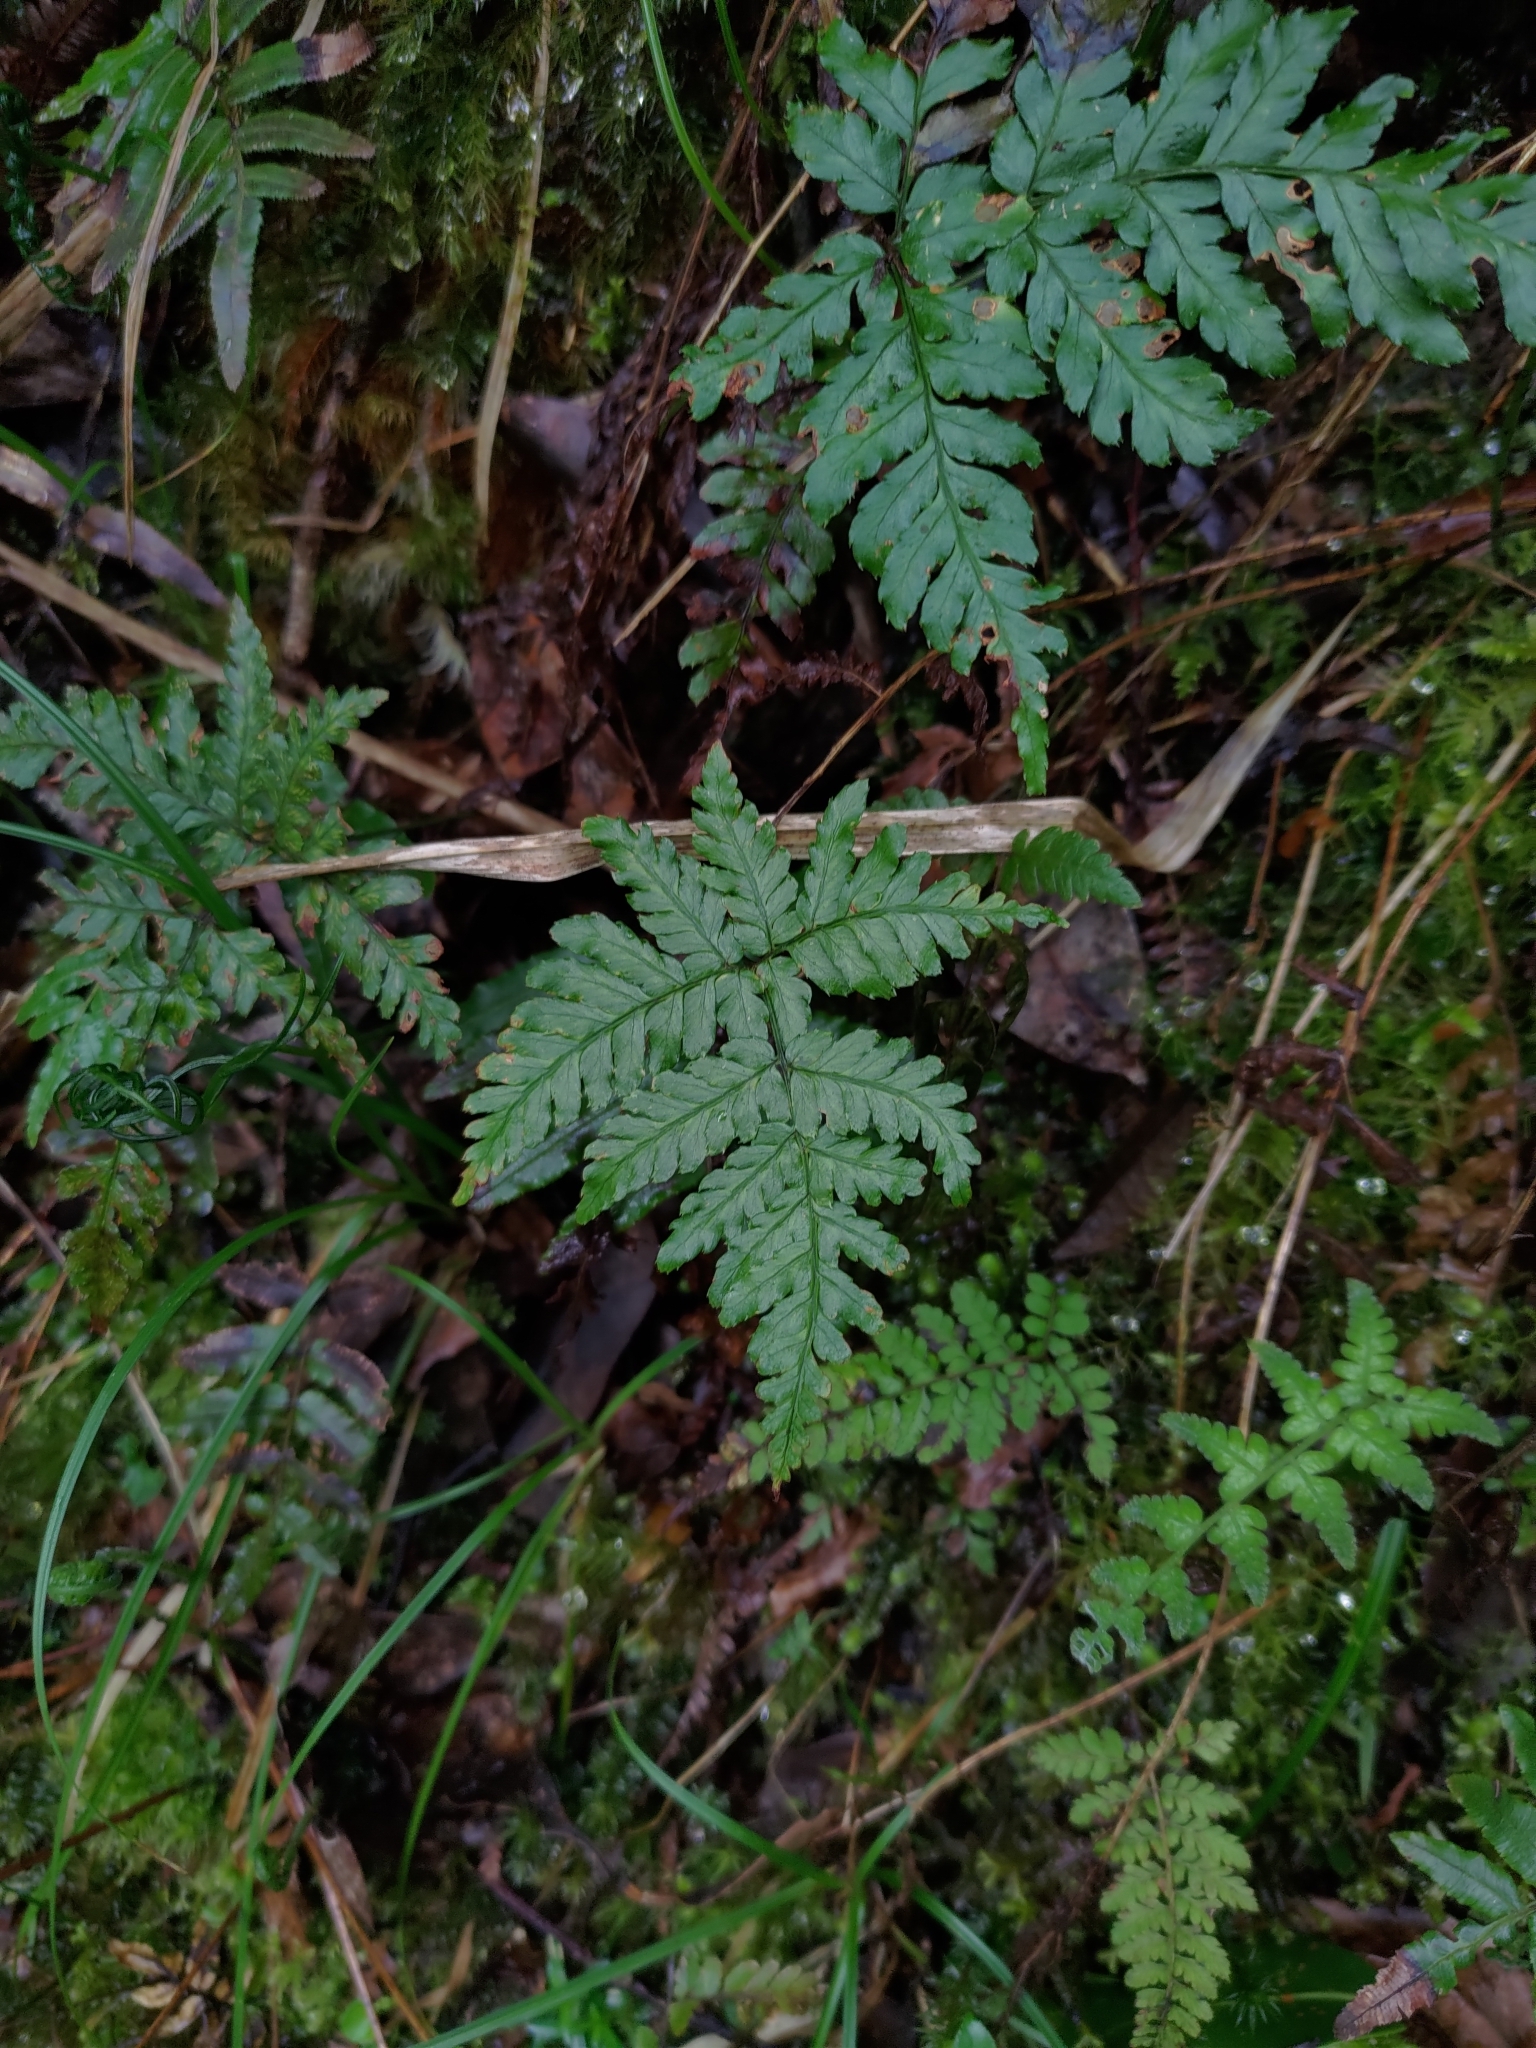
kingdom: Plantae
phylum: Tracheophyta
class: Polypodiopsida
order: Polypodiales
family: Dryopteridaceae
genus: Dryopteris
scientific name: Dryopteris formosana
